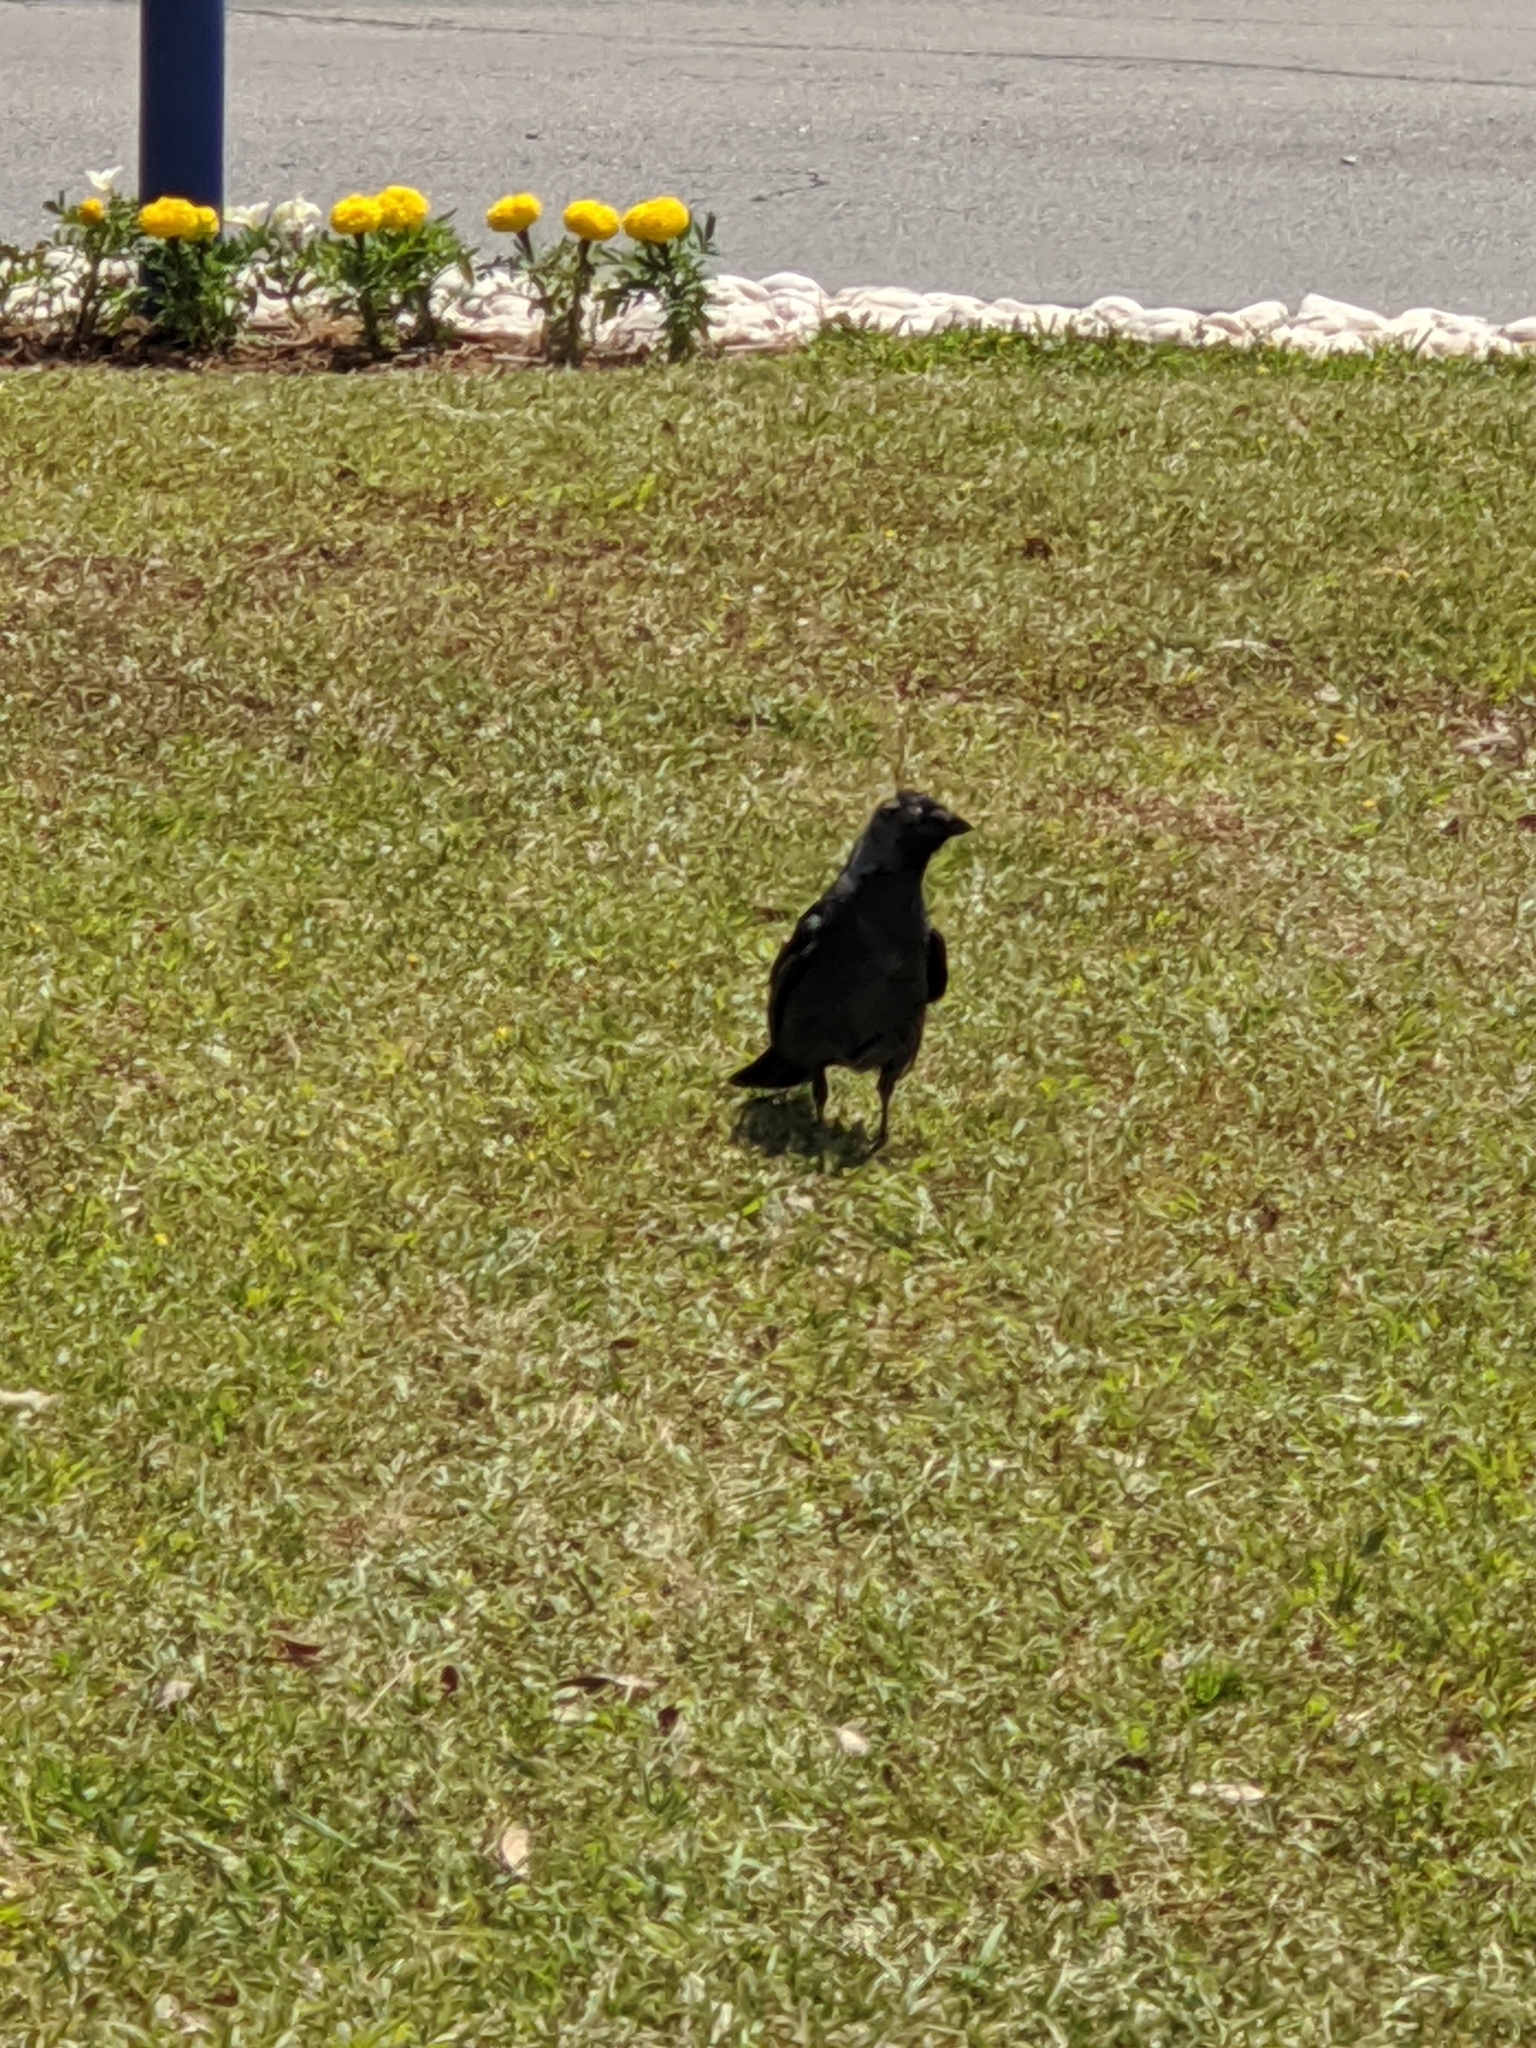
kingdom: Animalia
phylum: Chordata
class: Aves
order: Passeriformes
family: Corvidae
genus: Coloeus
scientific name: Coloeus monedula
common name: Western jackdaw
